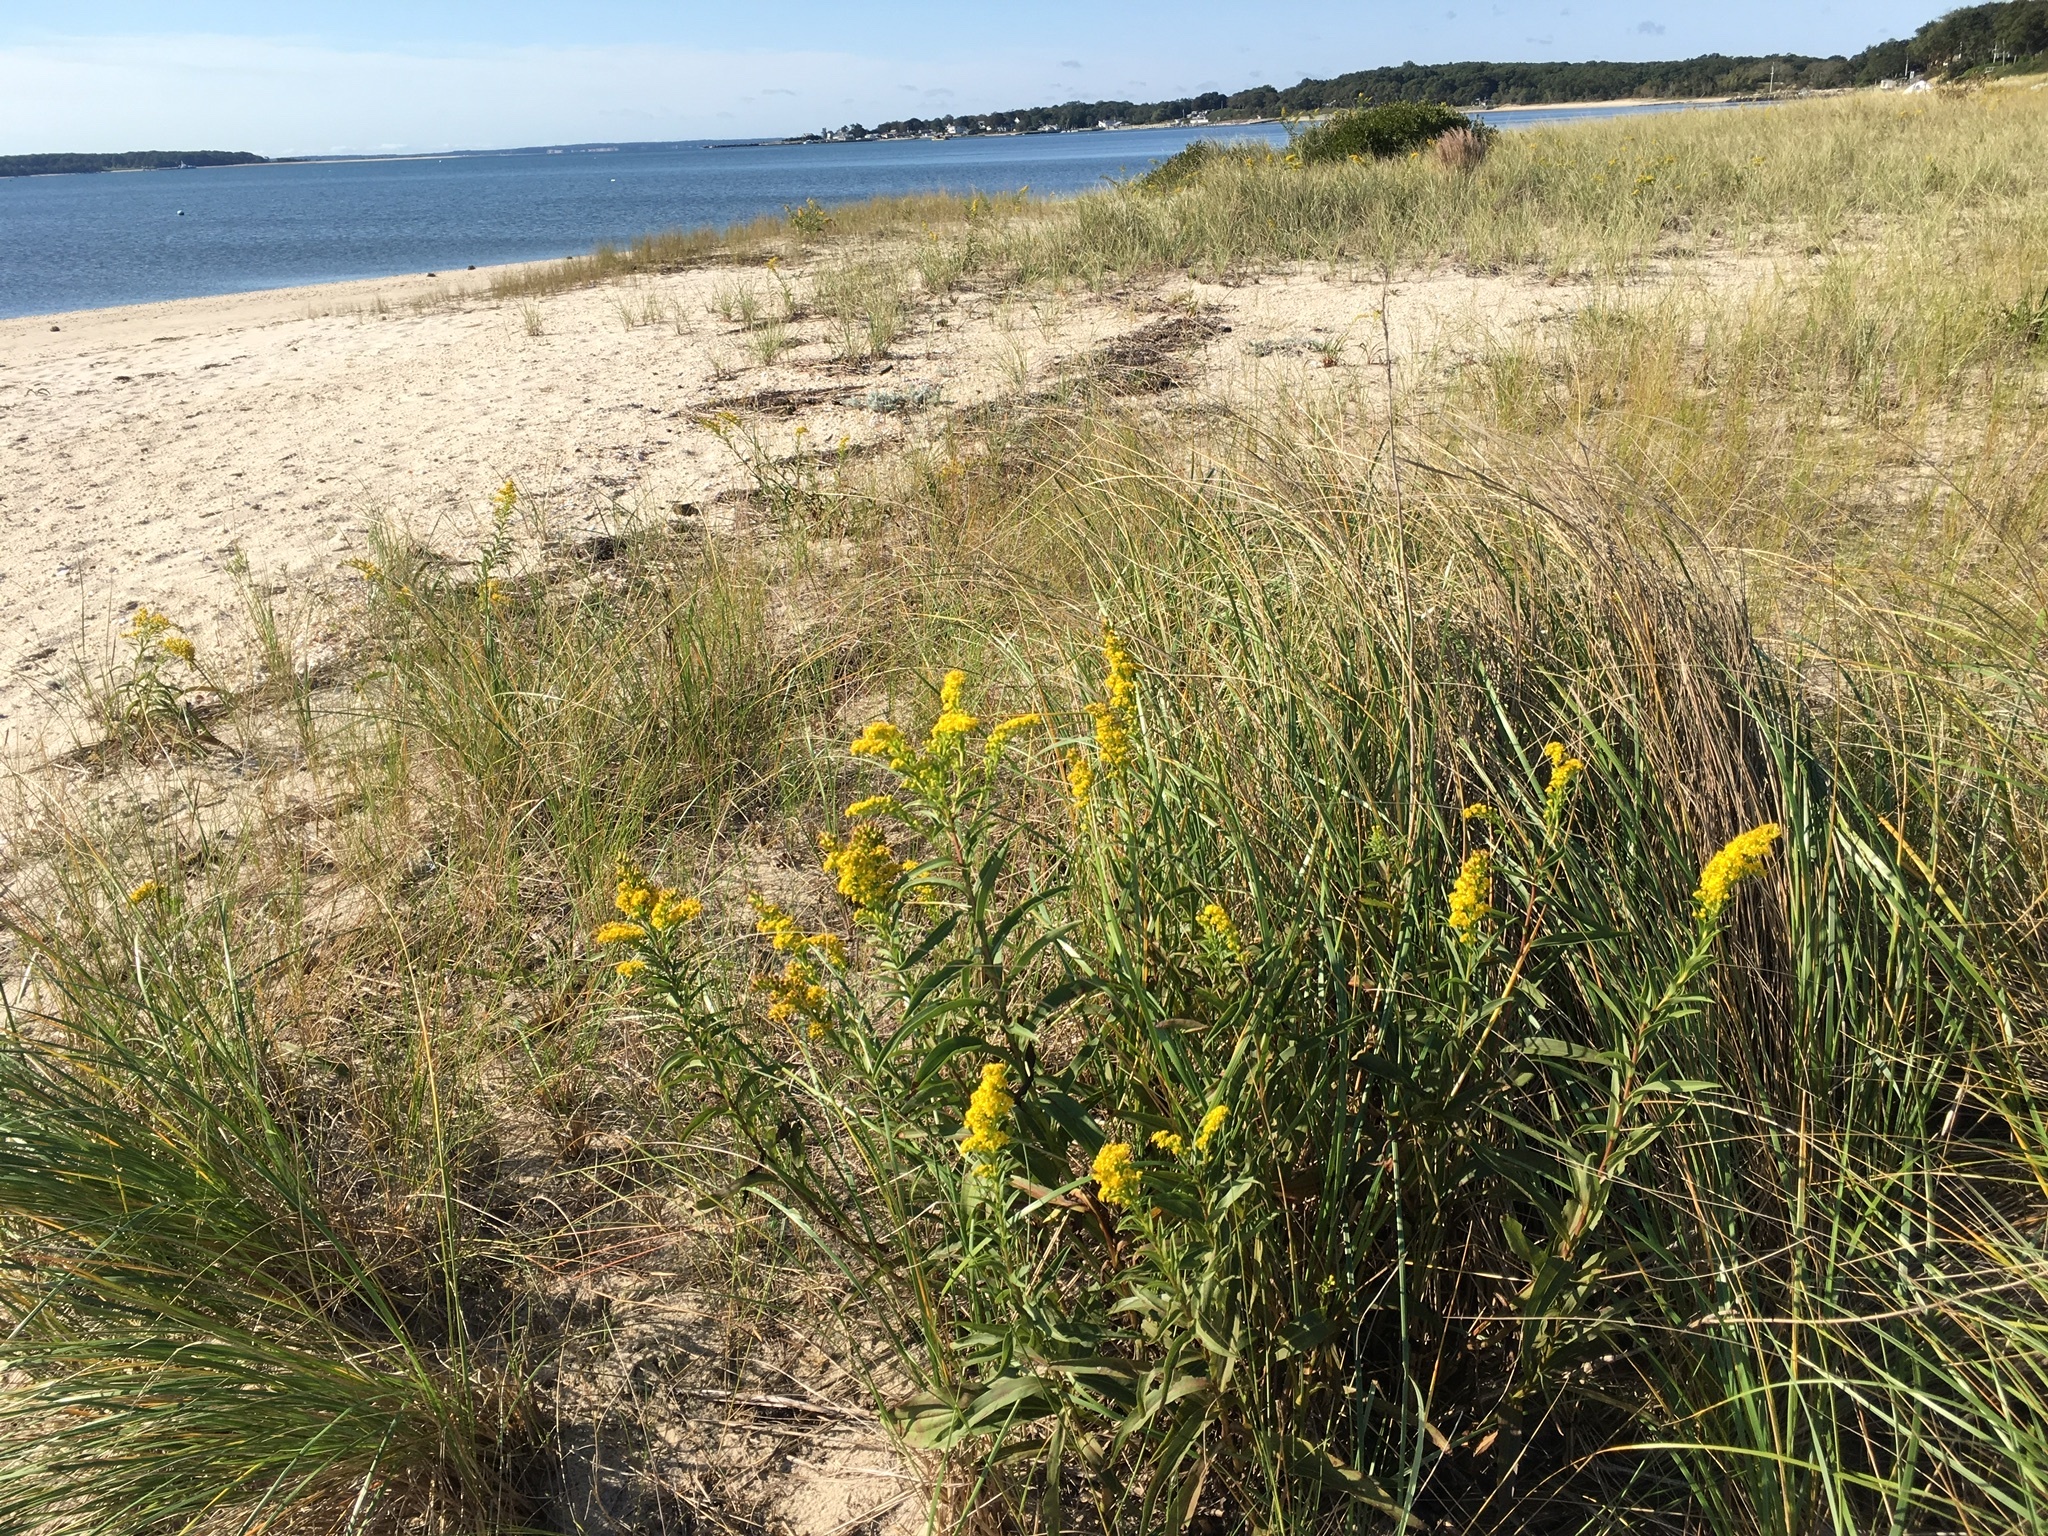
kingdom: Plantae
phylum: Tracheophyta
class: Magnoliopsida
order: Asterales
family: Asteraceae
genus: Solidago
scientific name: Solidago sempervirens
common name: Salt-marsh goldenrod
